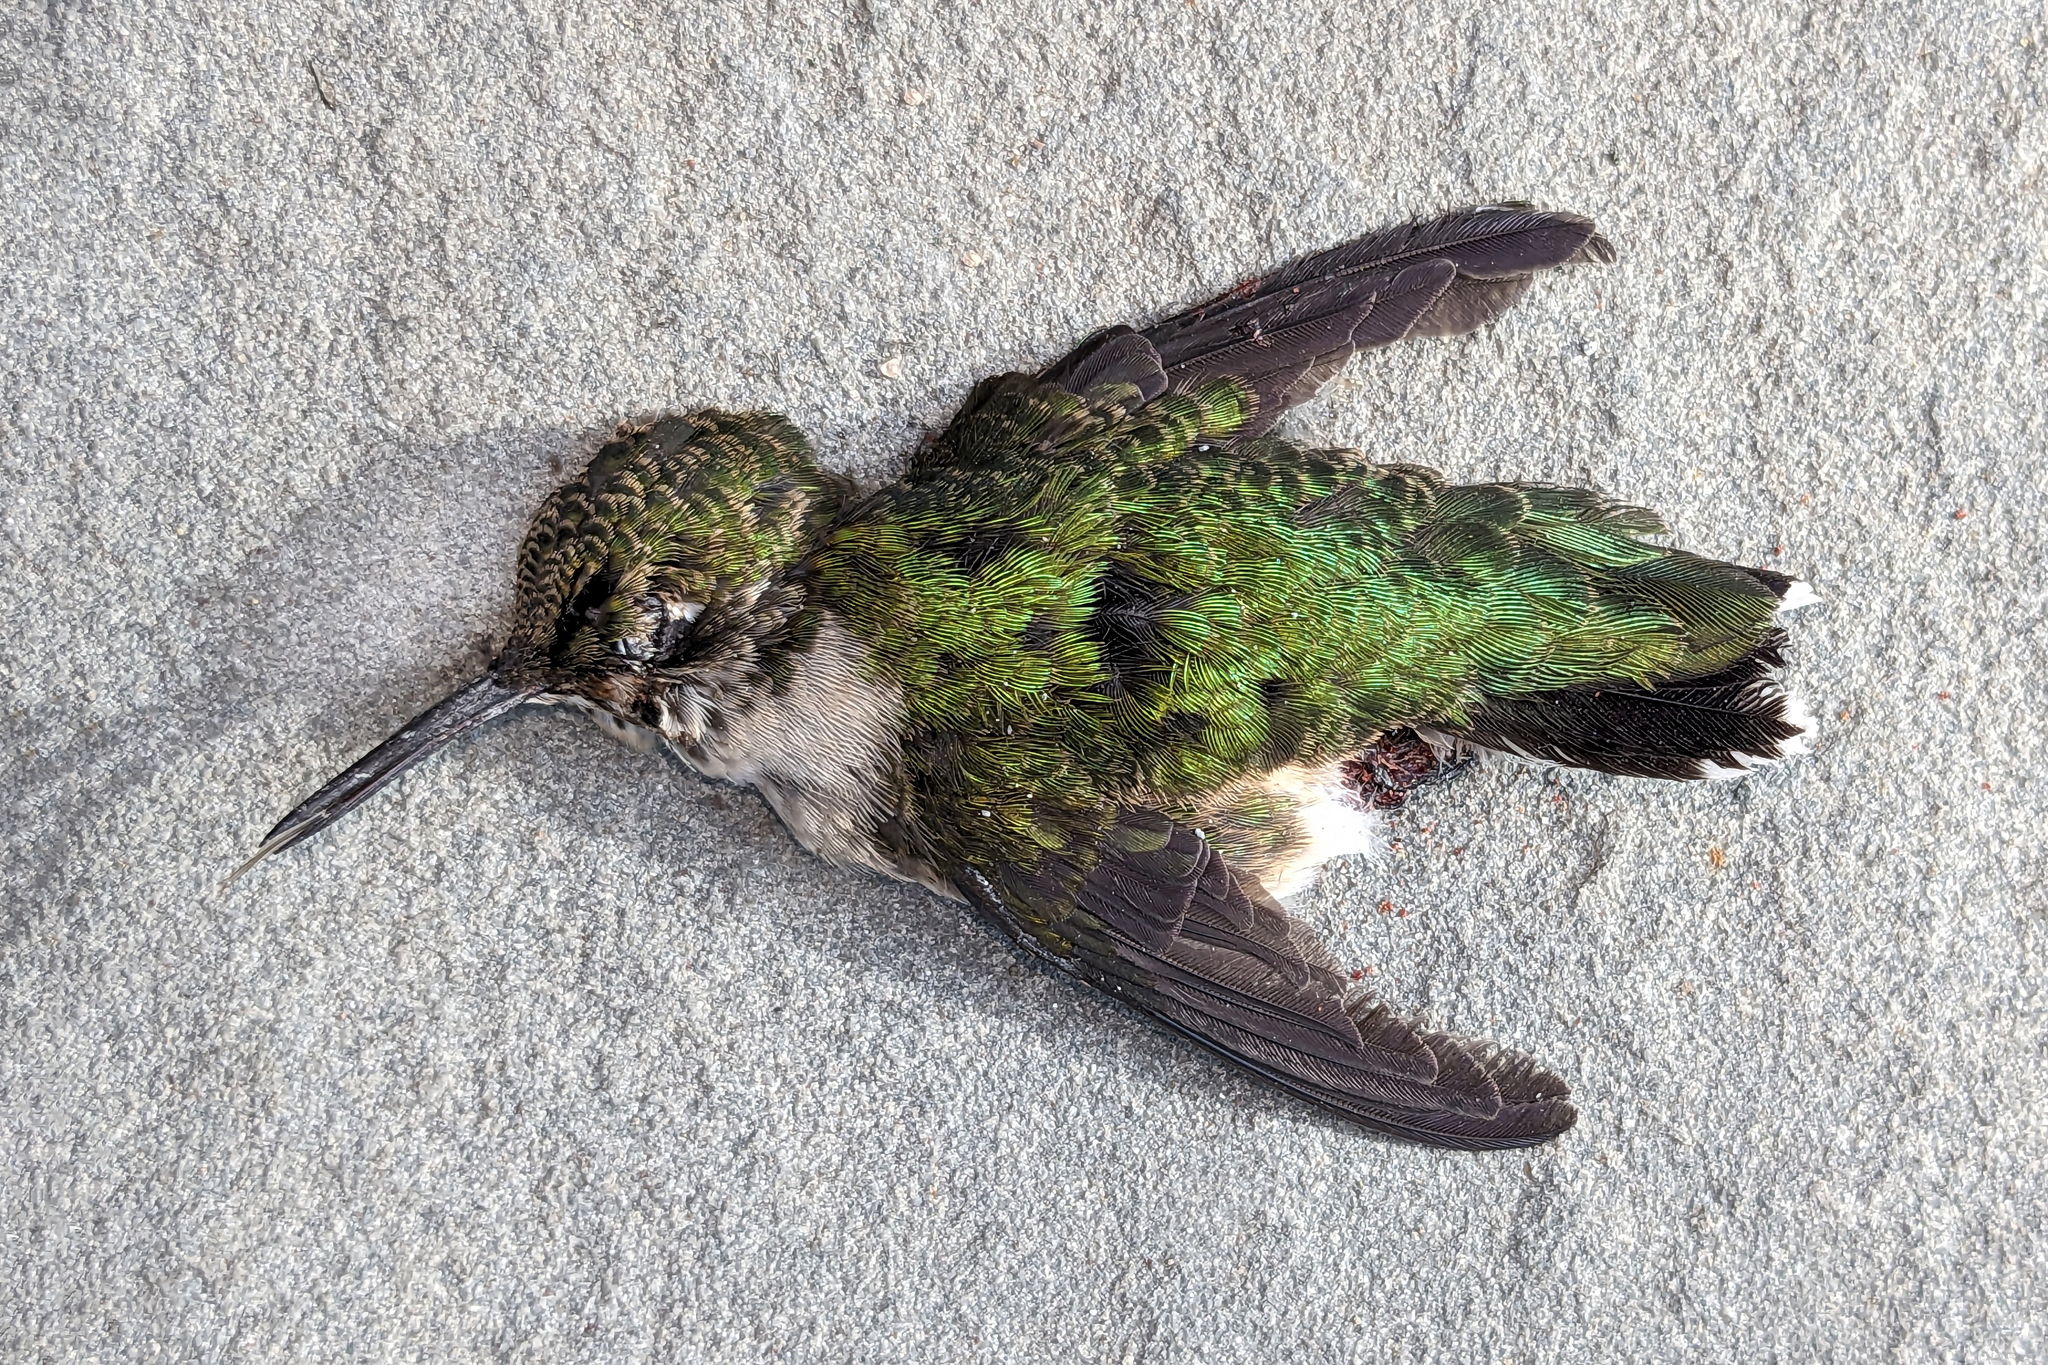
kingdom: Animalia
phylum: Chordata
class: Aves
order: Apodiformes
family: Trochilidae
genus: Archilochus
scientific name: Archilochus colubris
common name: Ruby-throated hummingbird
